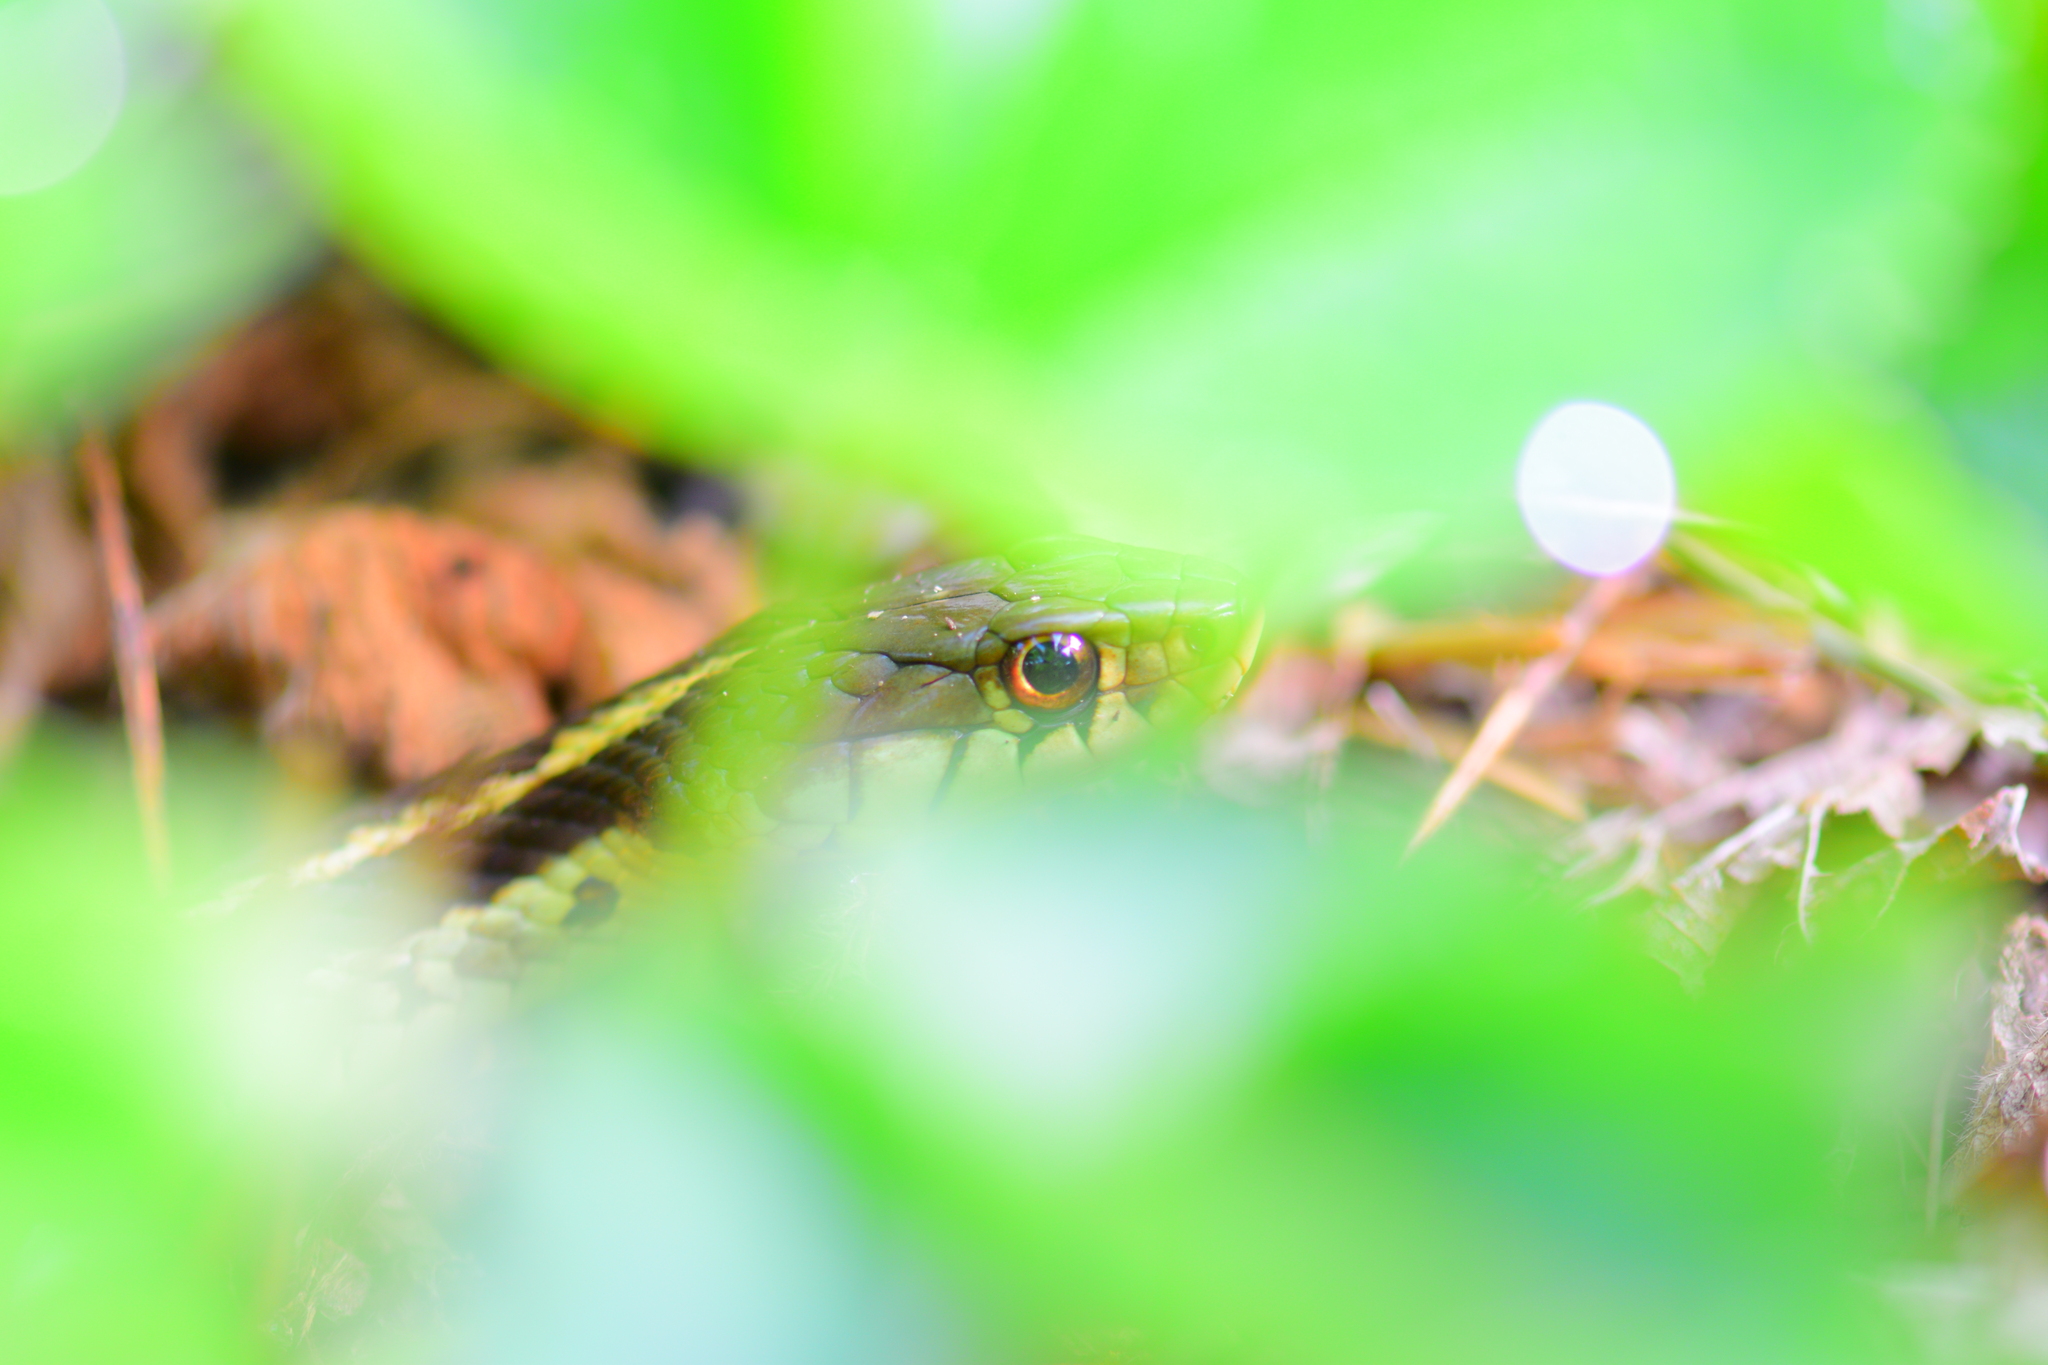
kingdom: Animalia
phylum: Chordata
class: Squamata
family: Colubridae
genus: Thamnophis
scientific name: Thamnophis sirtalis
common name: Common garter snake
